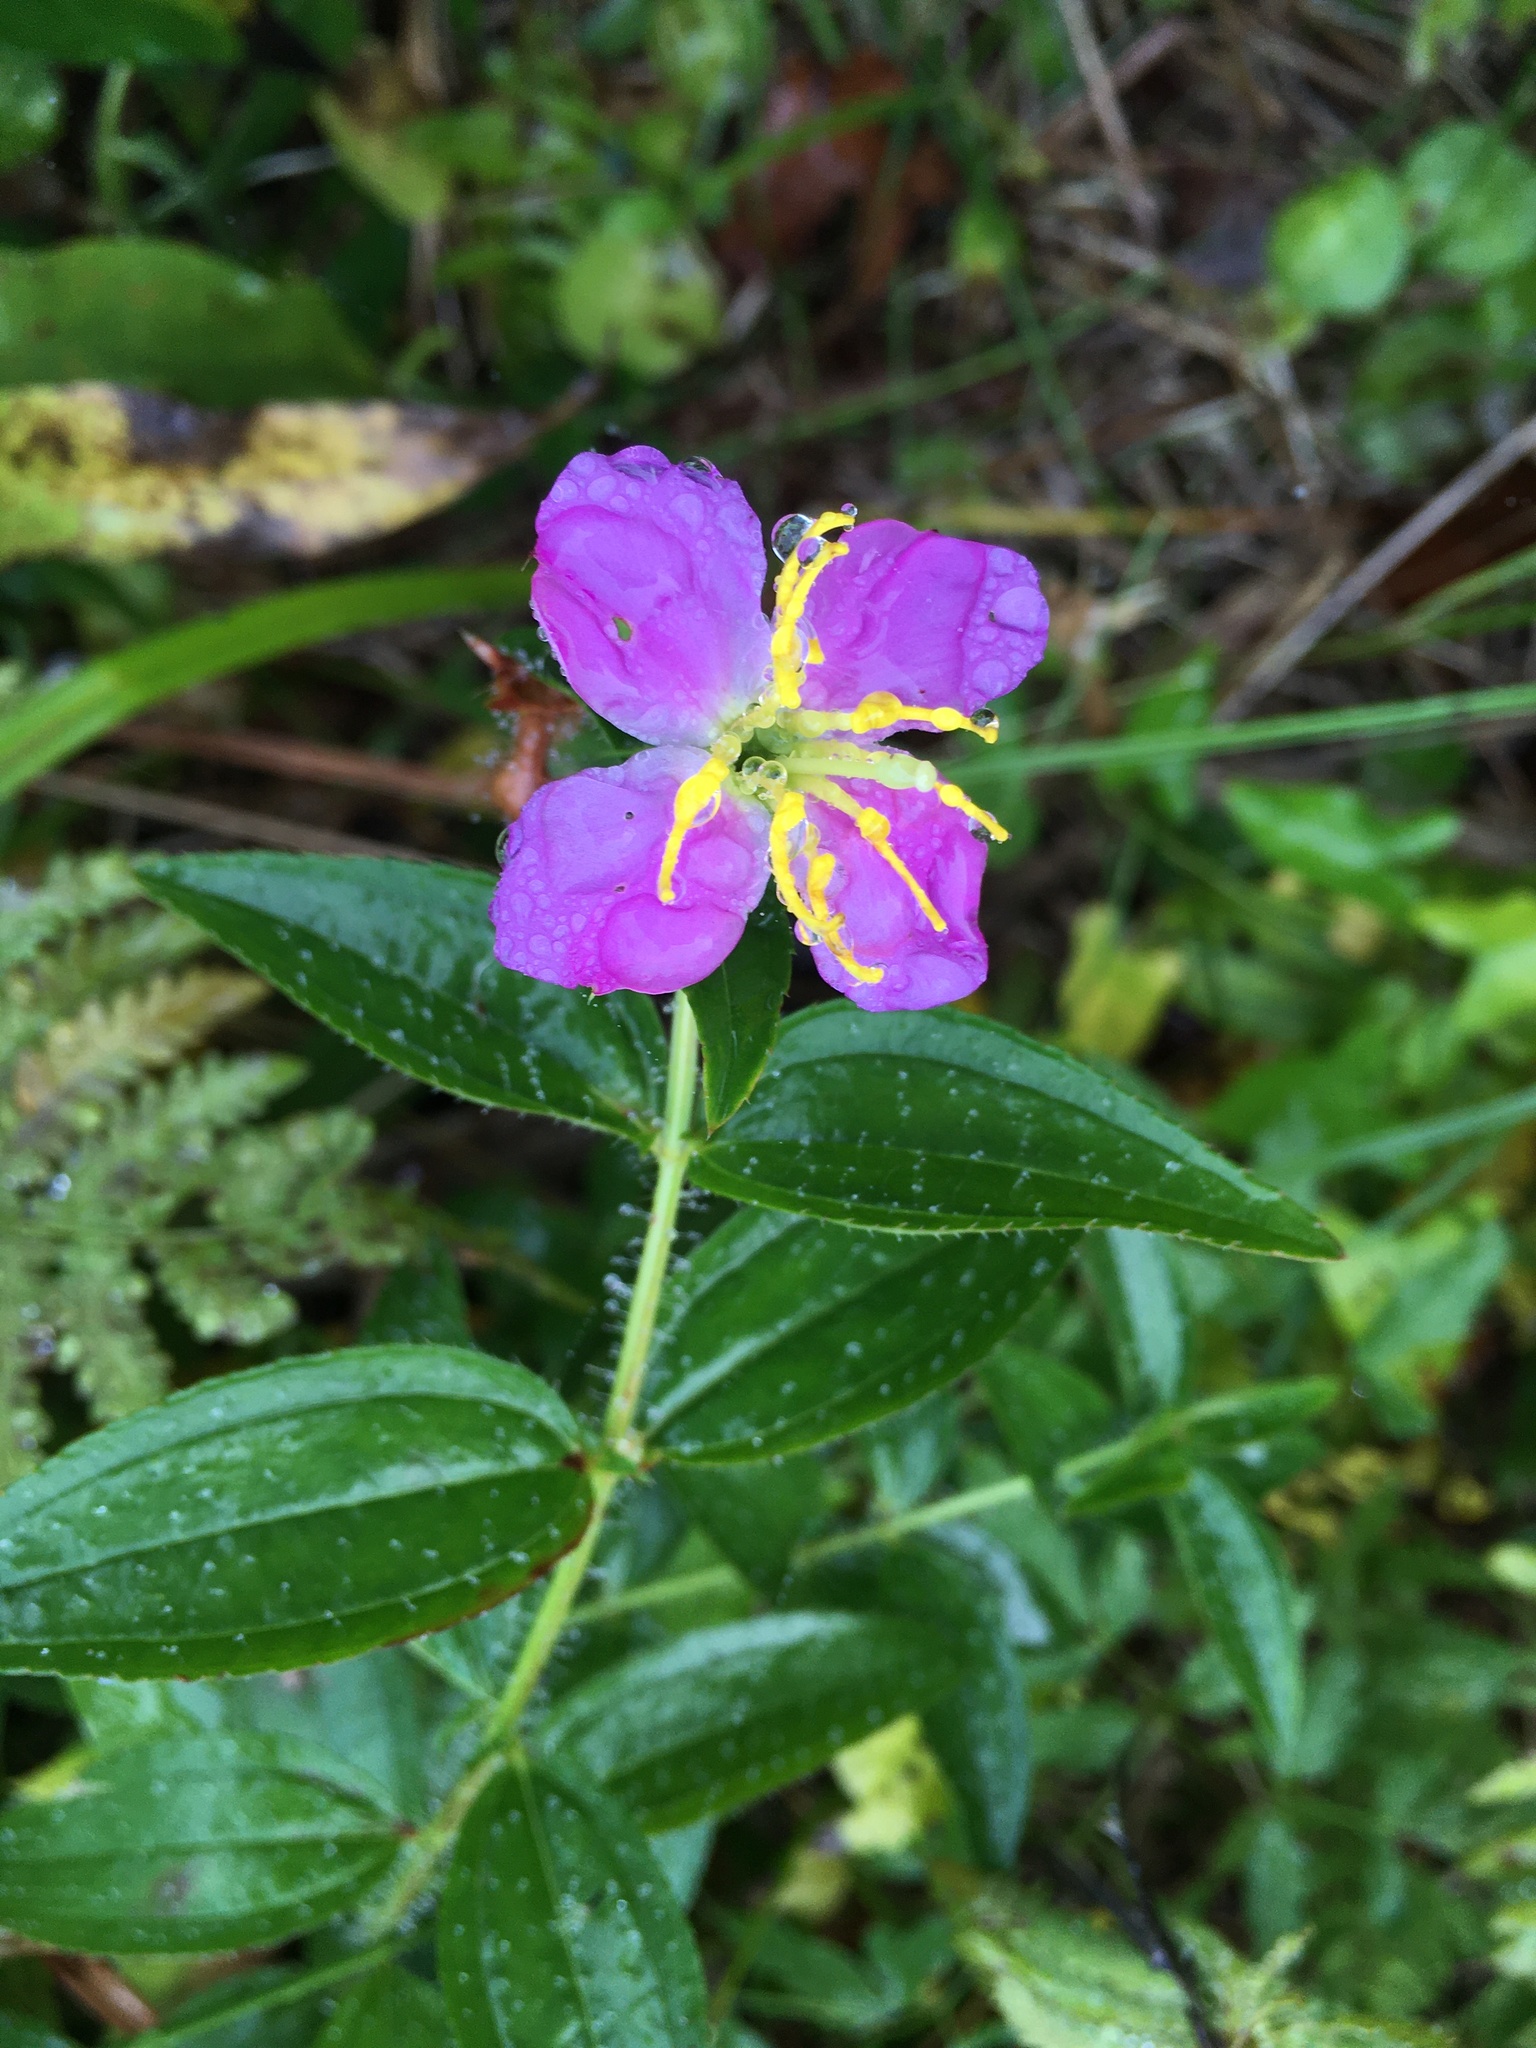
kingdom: Plantae
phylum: Tracheophyta
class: Magnoliopsida
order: Myrtales
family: Melastomataceae
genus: Rhexia
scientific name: Rhexia virginica
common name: Common meadow beauty
